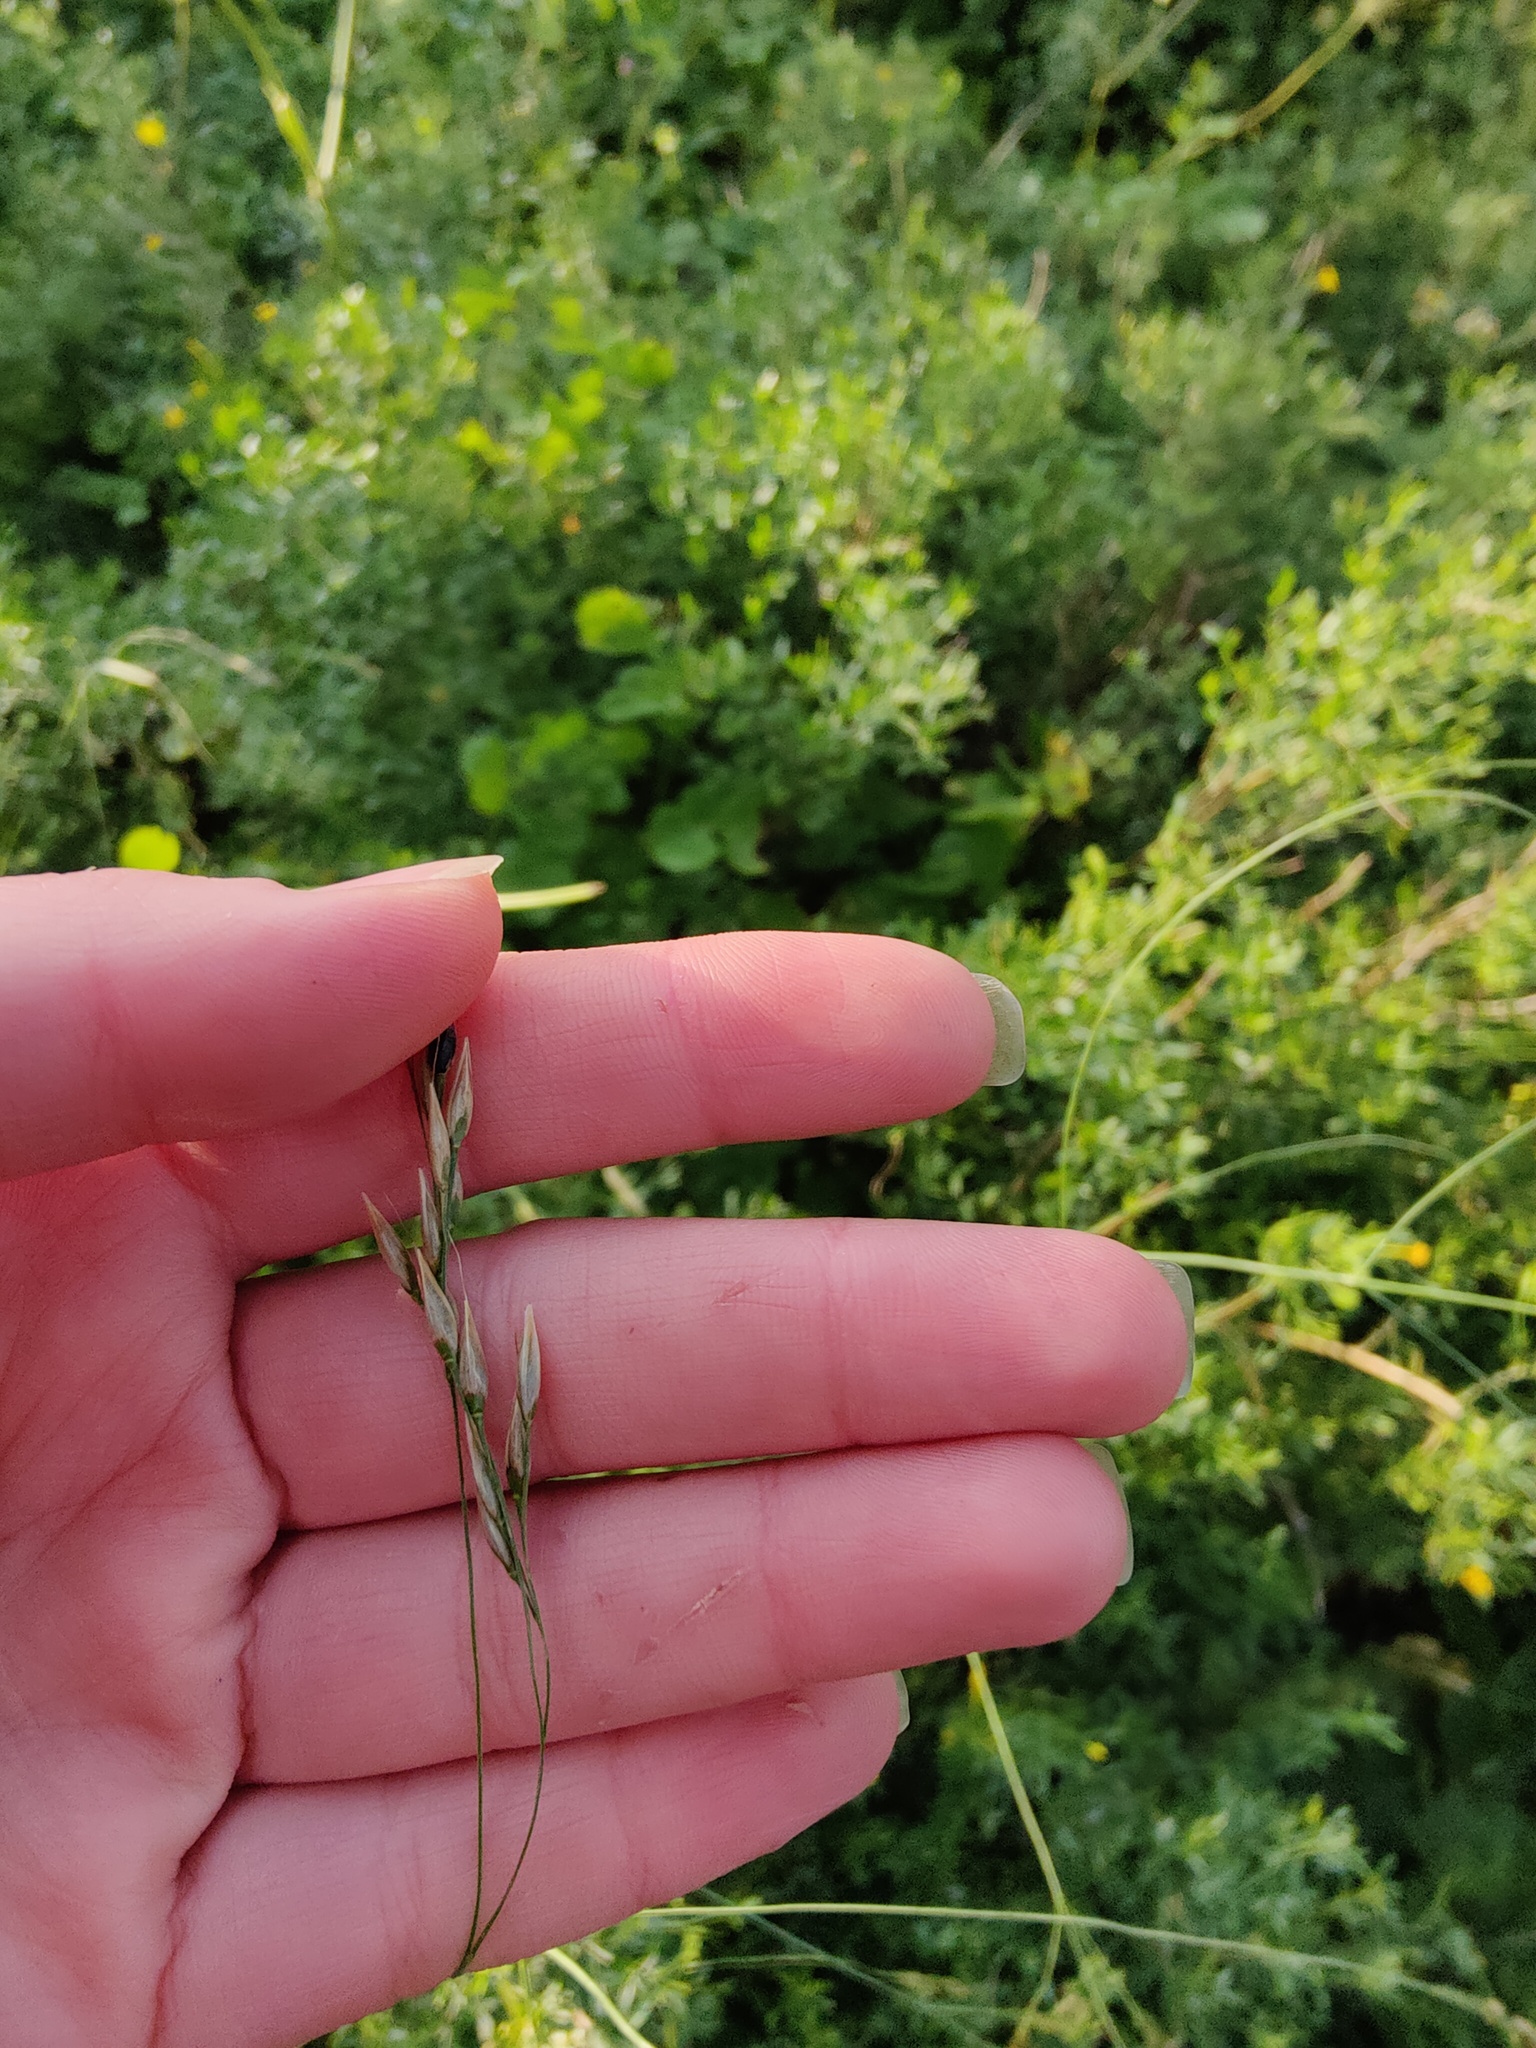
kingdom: Plantae
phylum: Tracheophyta
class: Liliopsida
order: Poales
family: Poaceae
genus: Piptatherum
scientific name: Piptatherum holciforme
